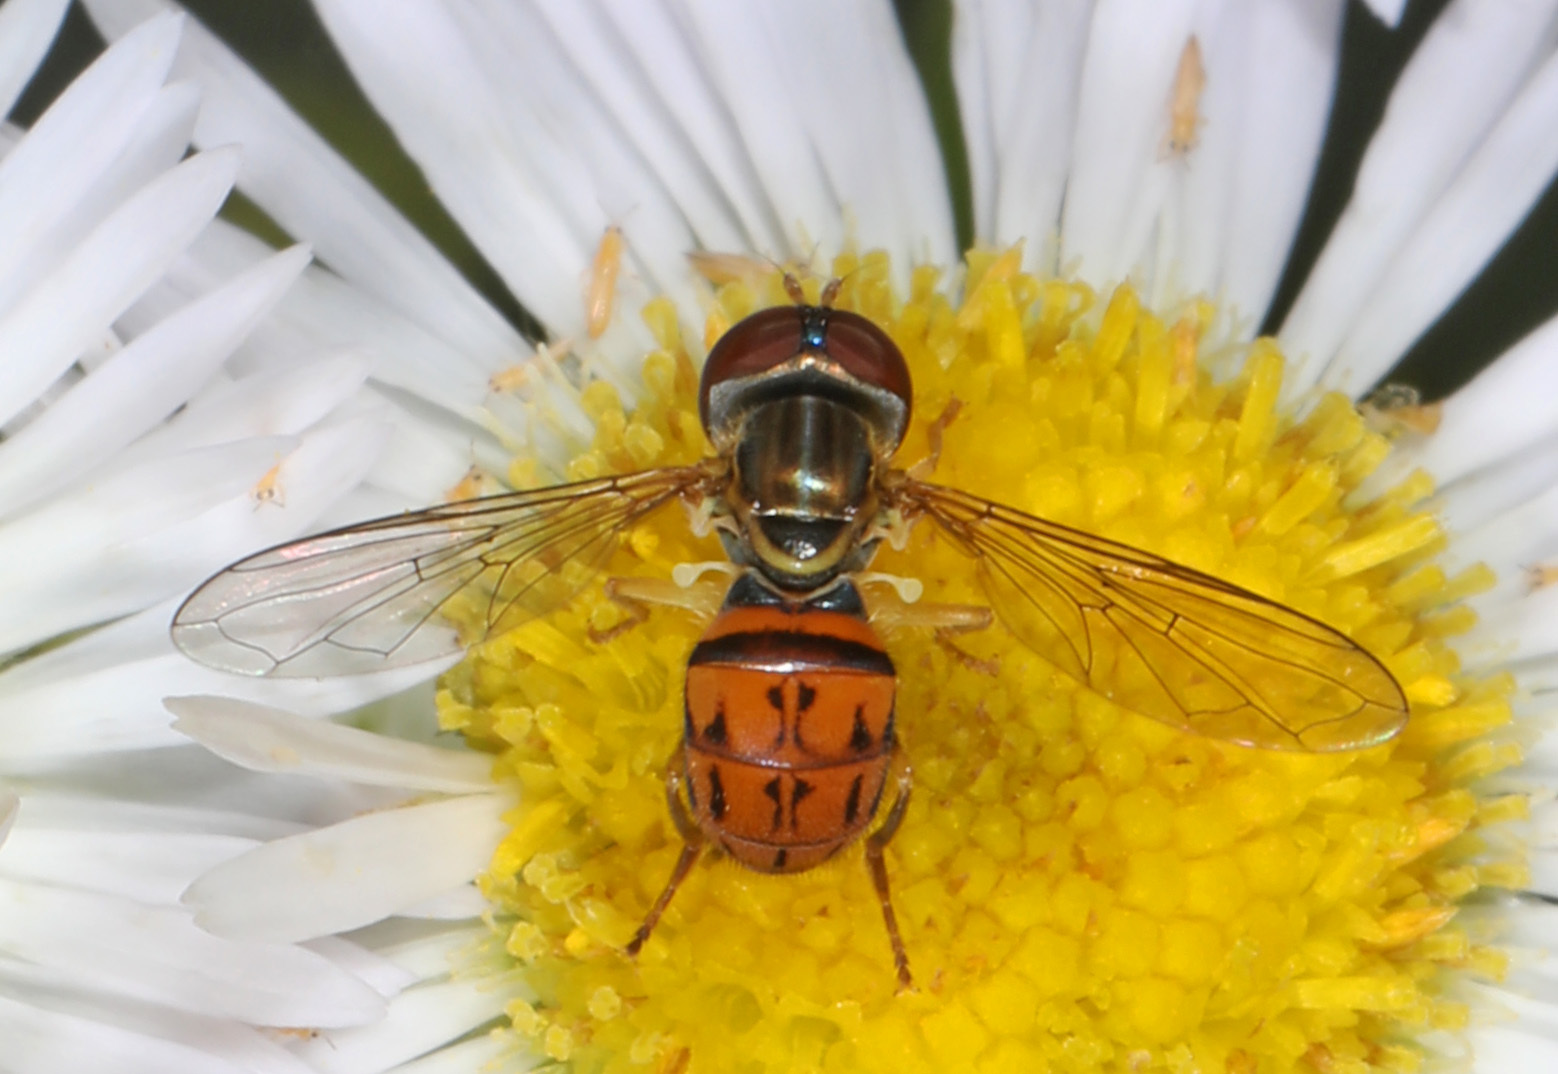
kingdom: Animalia
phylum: Arthropoda
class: Insecta
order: Diptera
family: Syrphidae
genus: Toxomerus
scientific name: Toxomerus boscii
